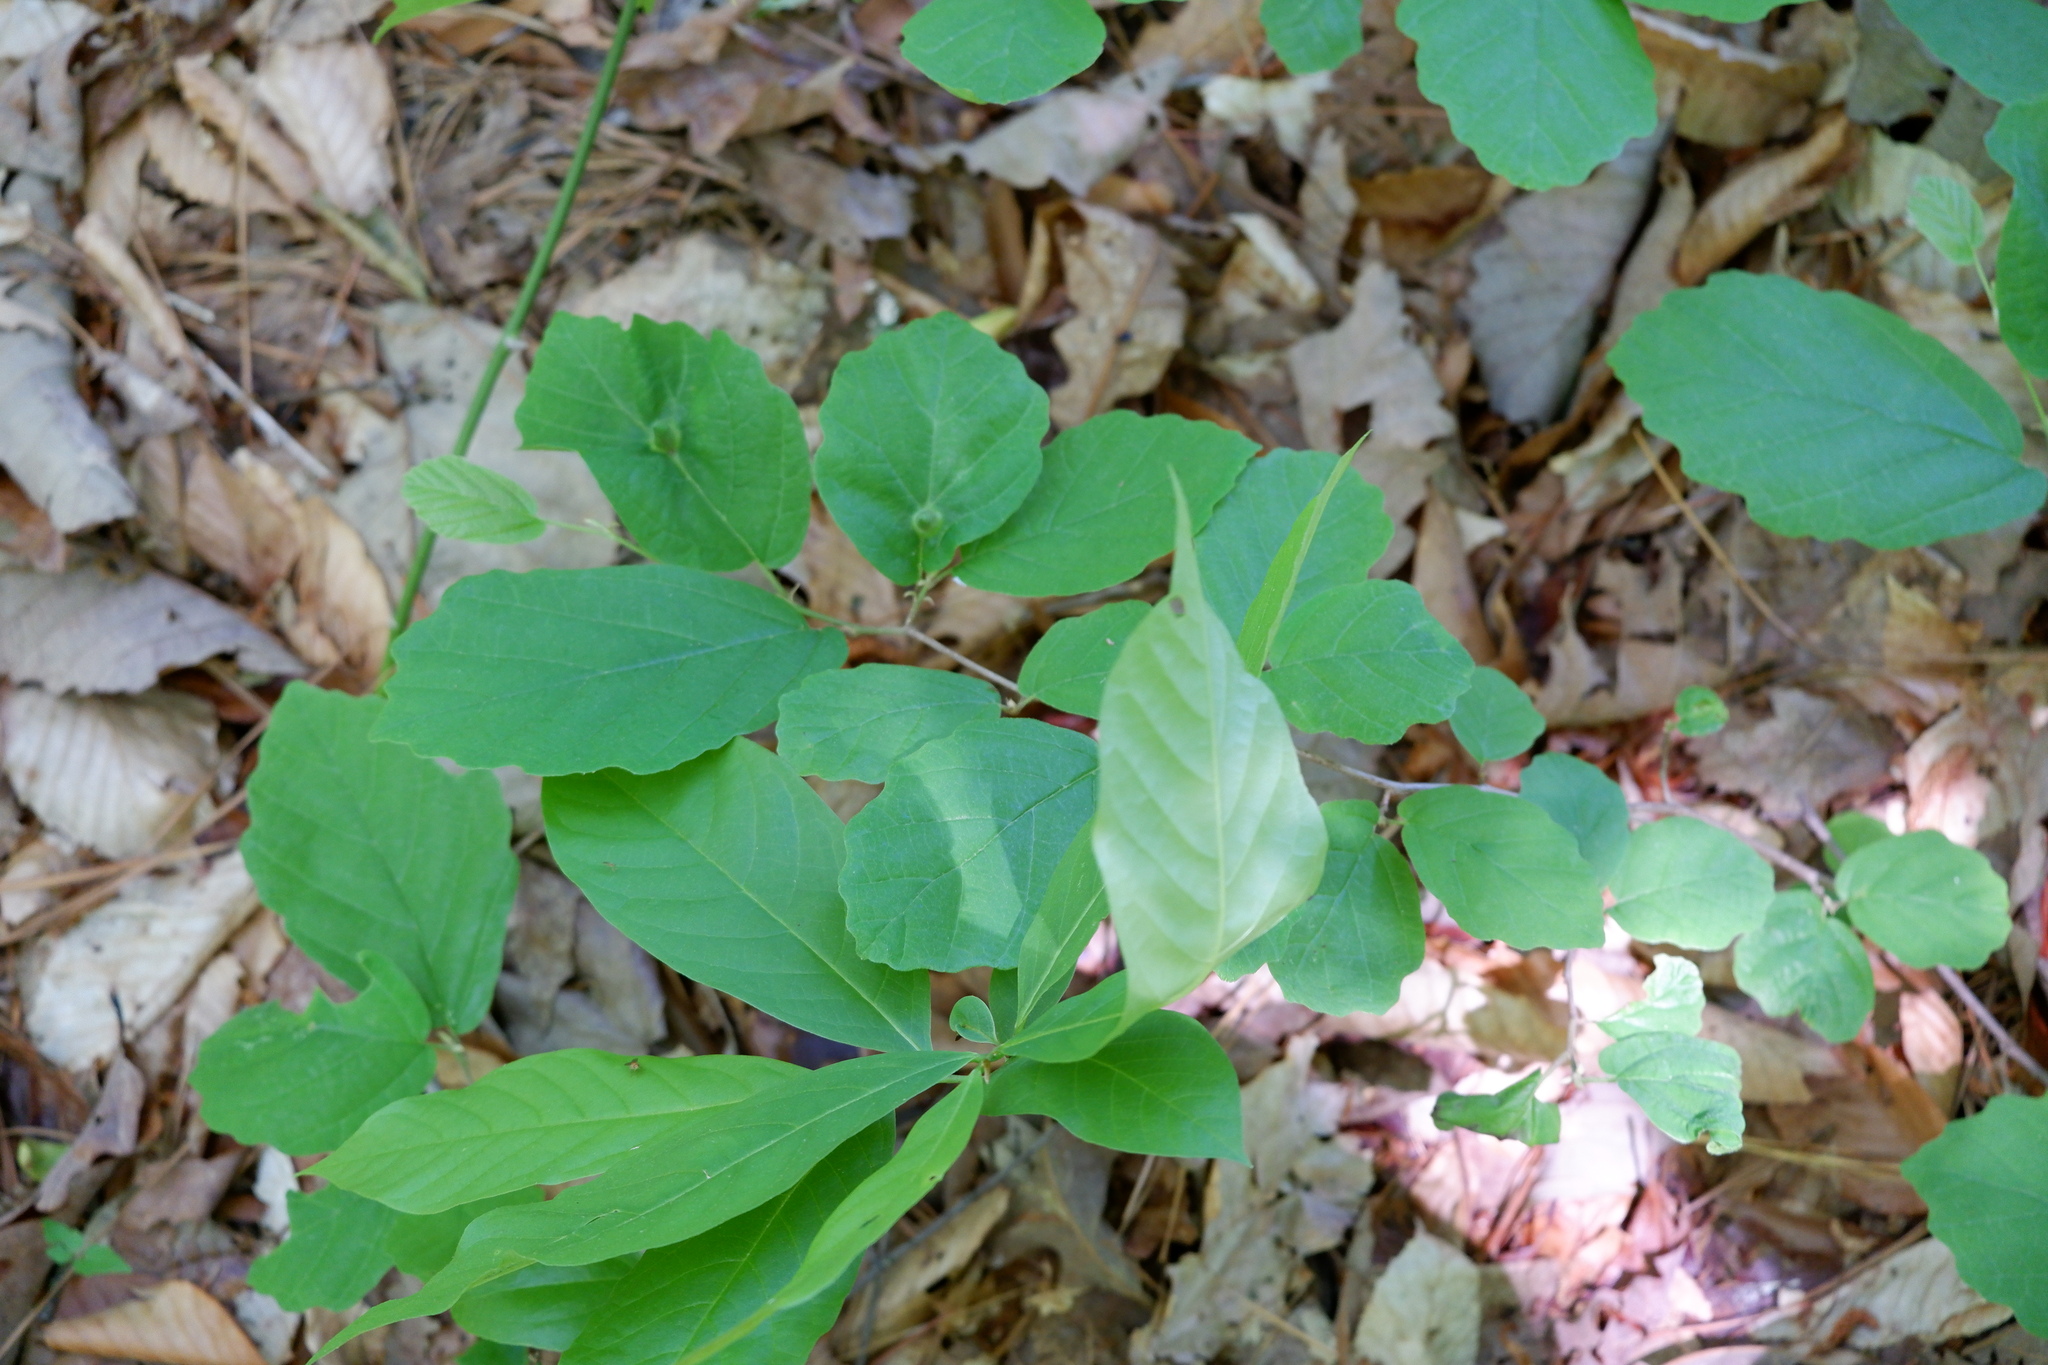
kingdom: Plantae
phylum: Tracheophyta
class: Magnoliopsida
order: Saxifragales
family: Hamamelidaceae
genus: Hamamelis
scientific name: Hamamelis virginiana
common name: Witch-hazel
